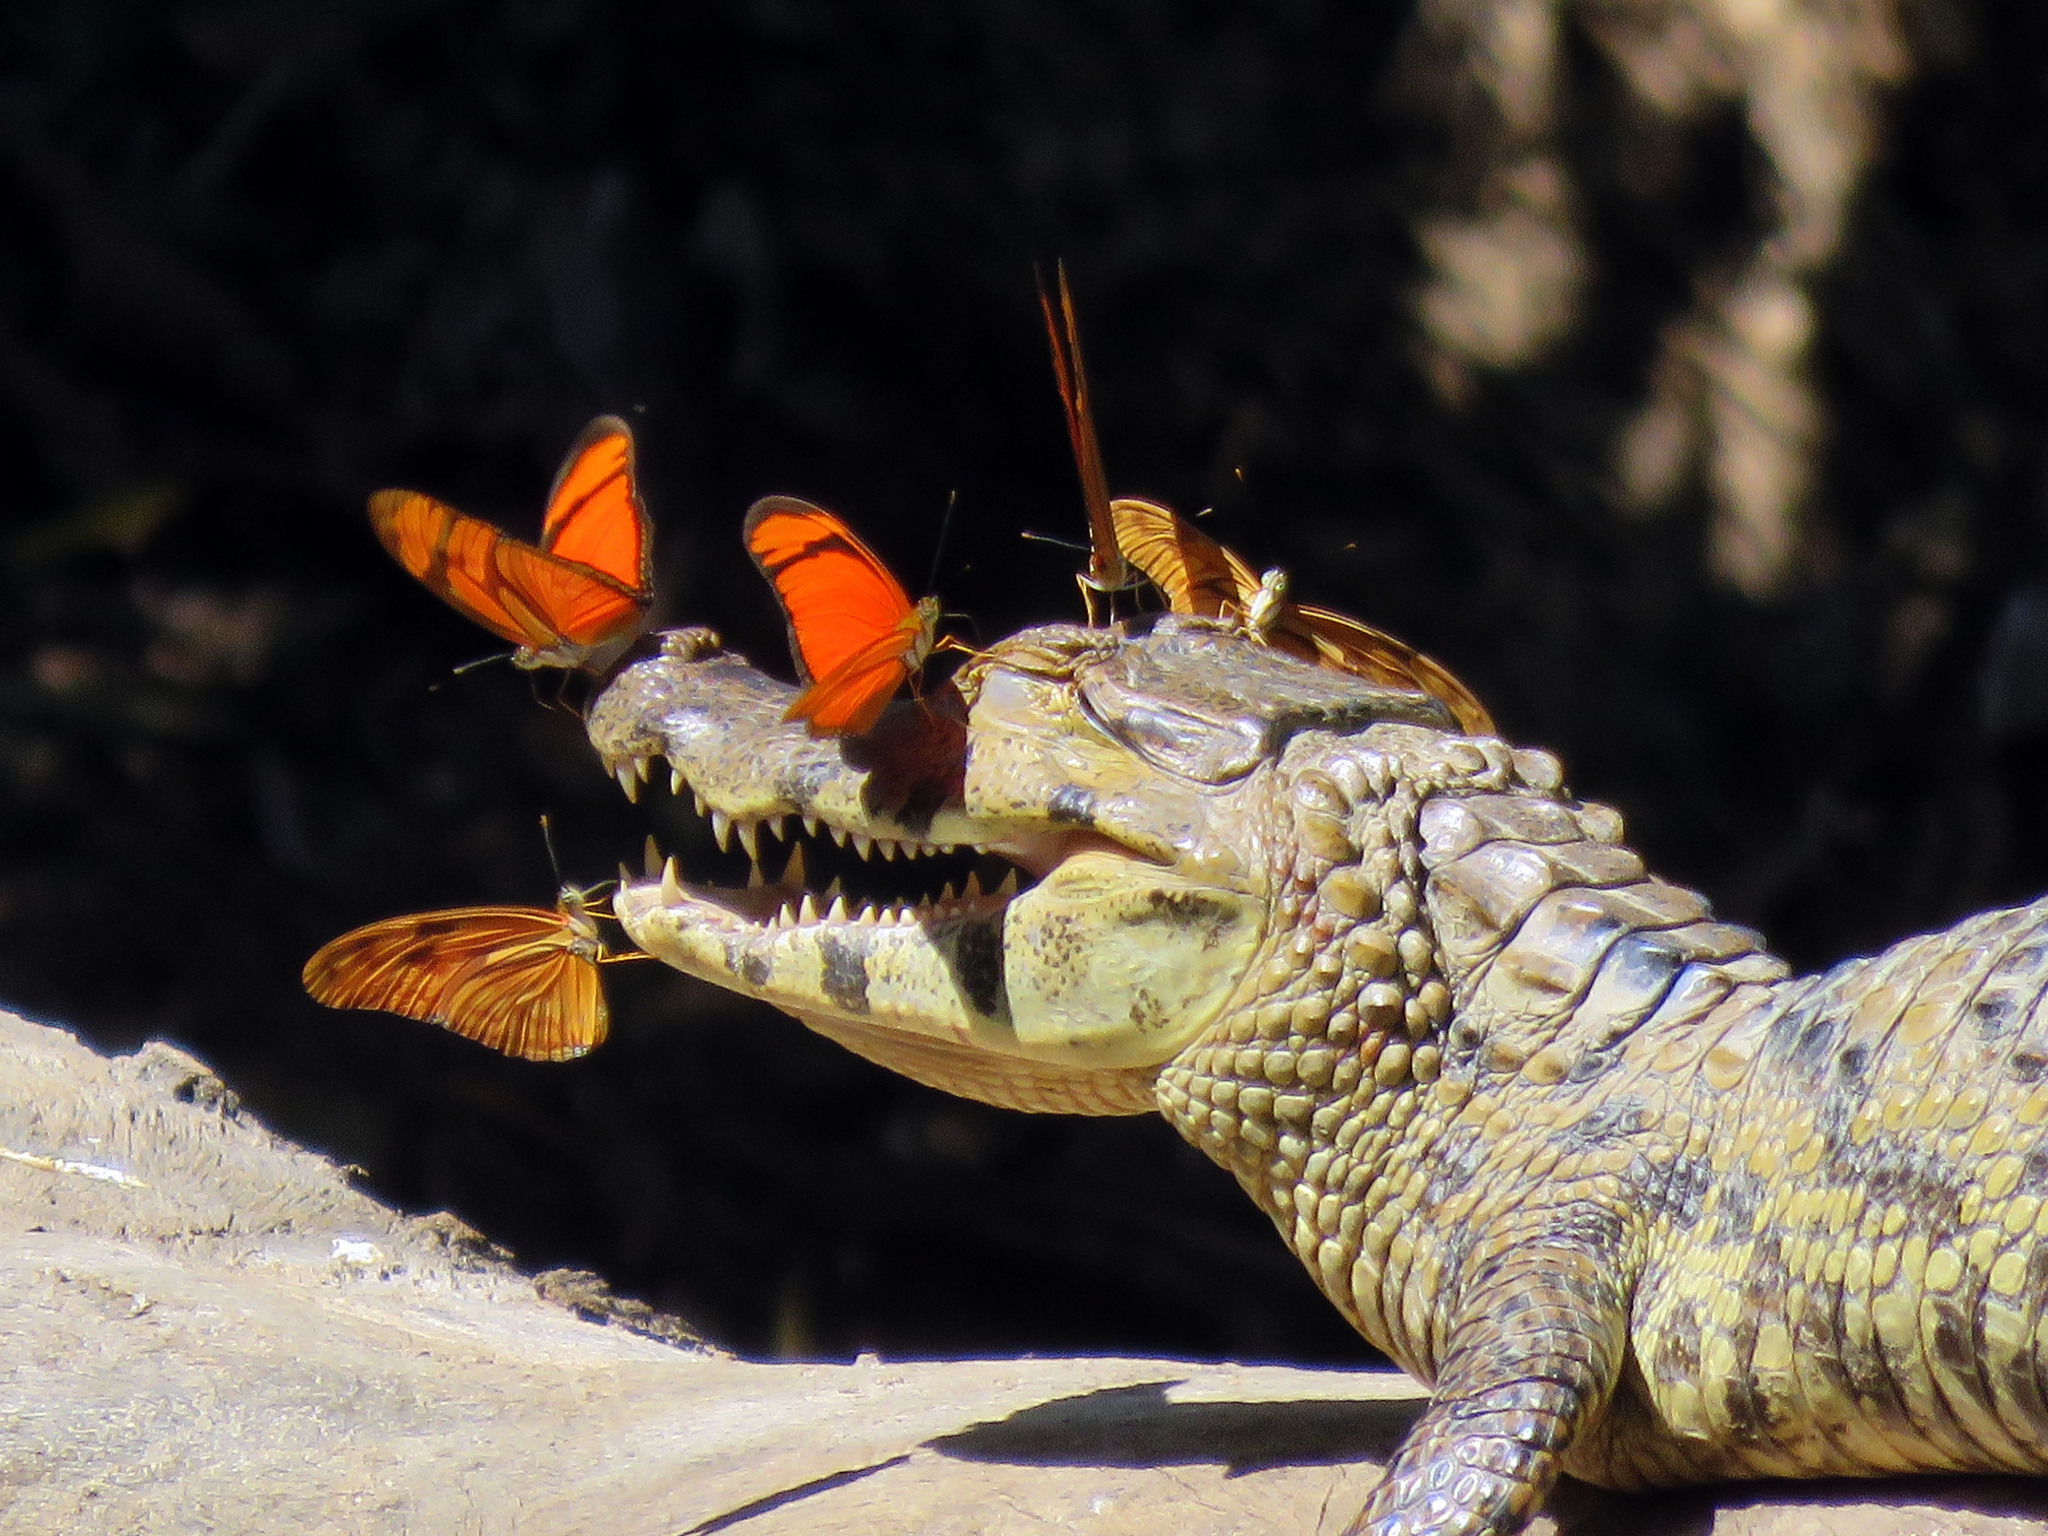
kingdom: Animalia
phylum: Chordata
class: Crocodylia
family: Alligatoridae
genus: Caiman
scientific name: Caiman yacare
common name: Yacare caiman
